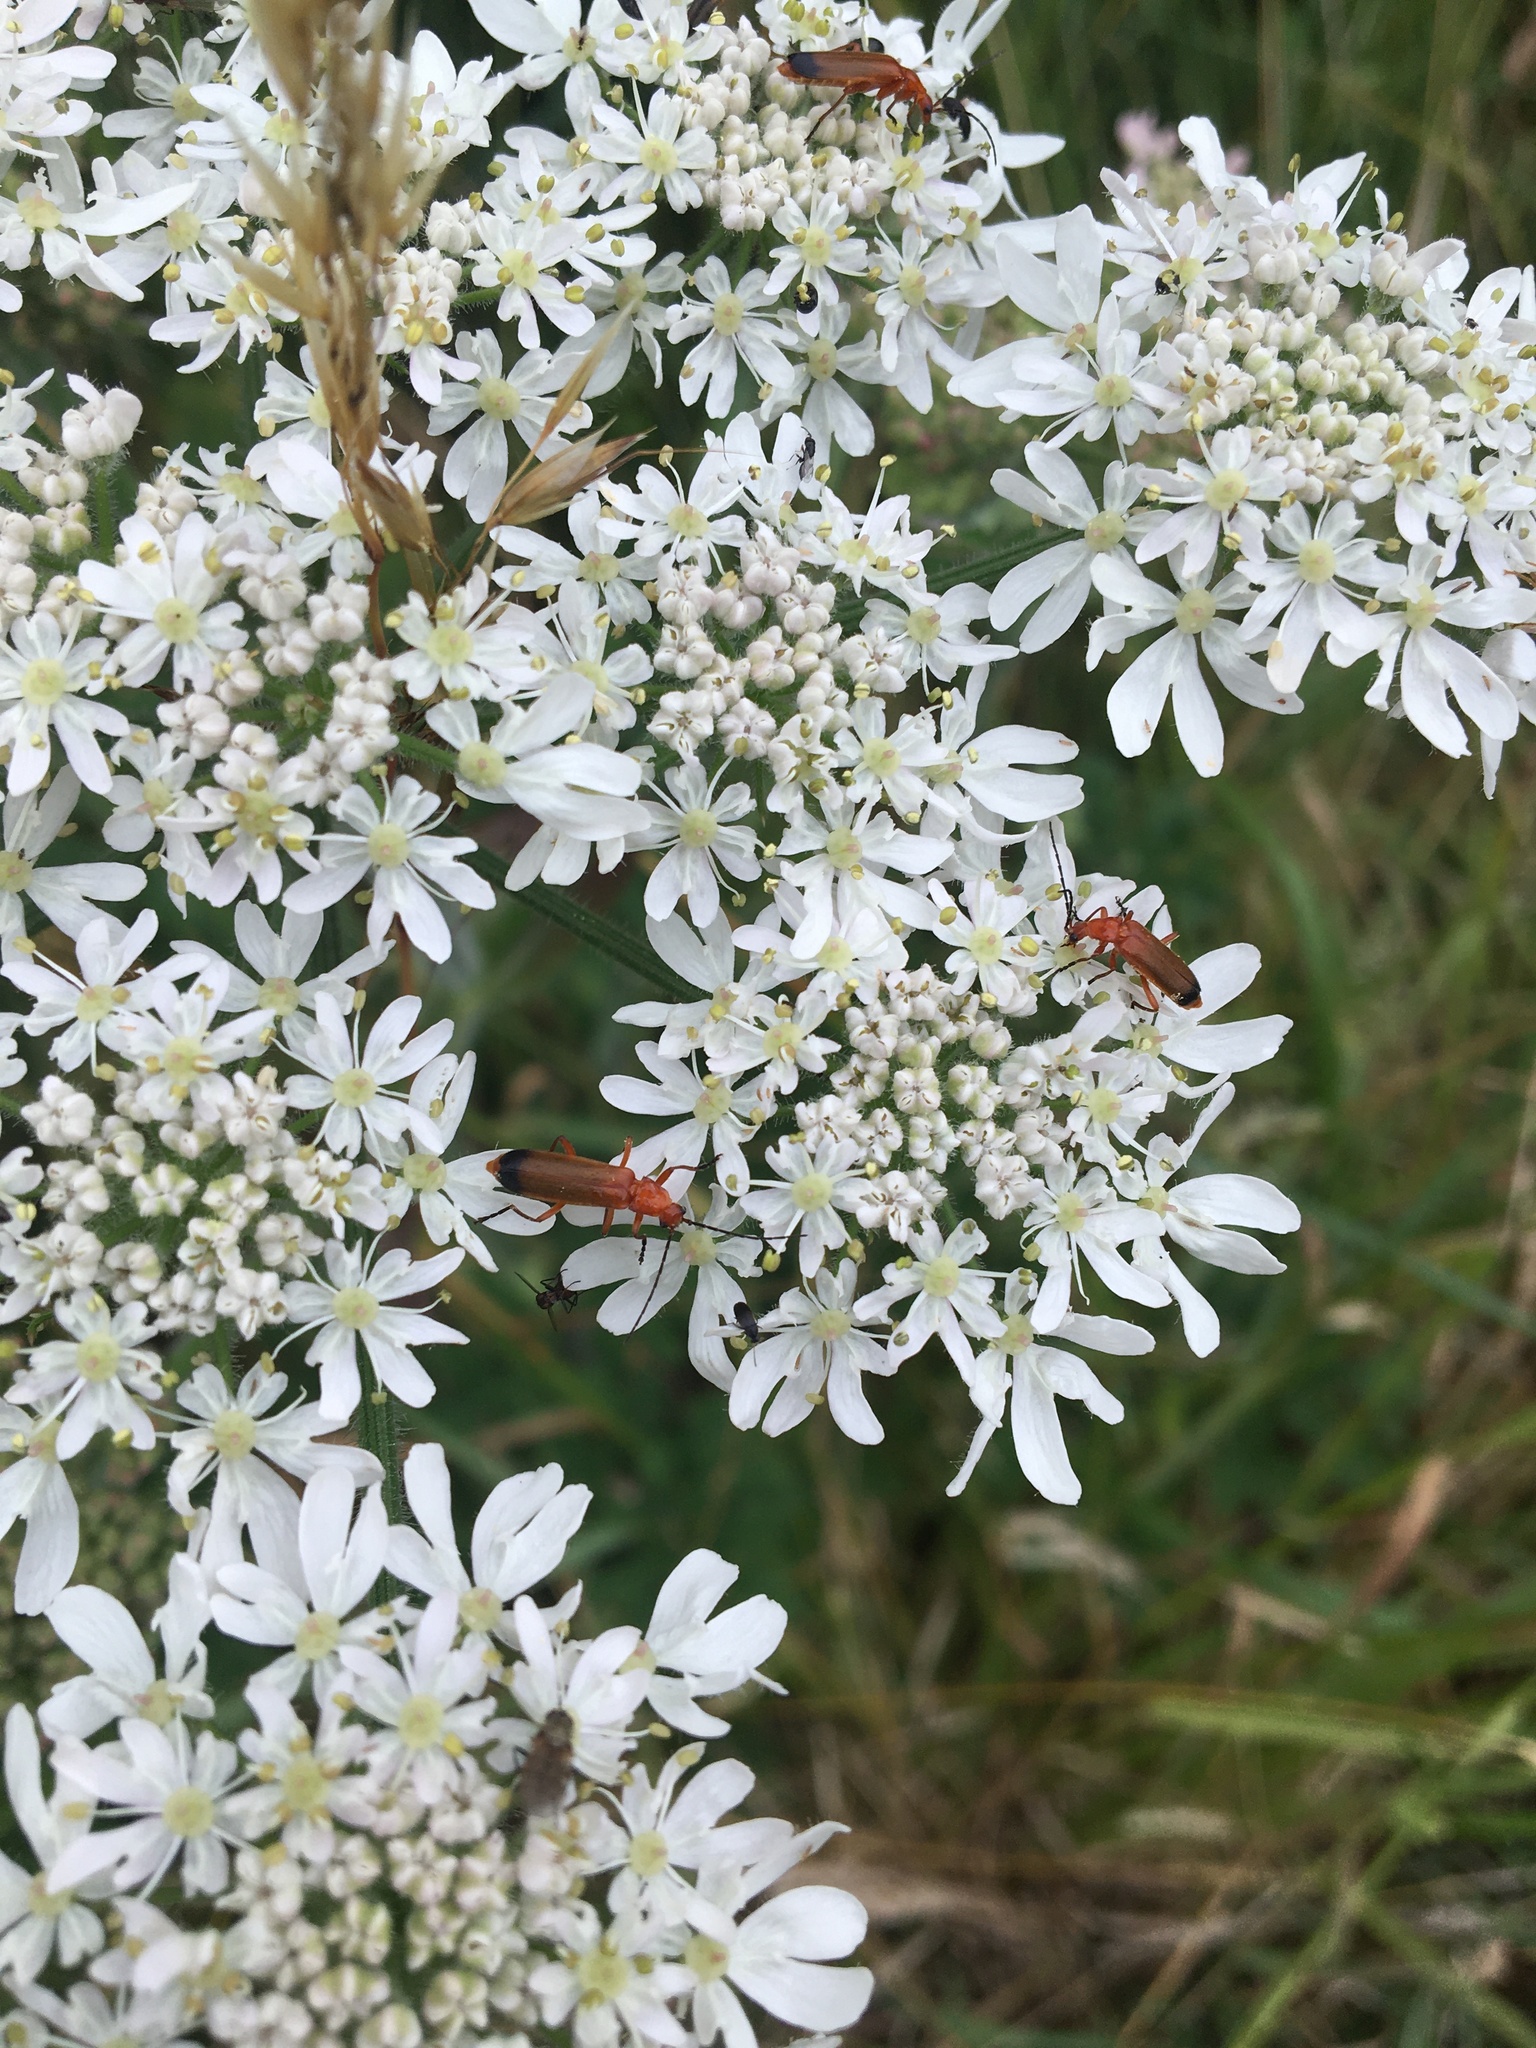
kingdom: Animalia
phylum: Arthropoda
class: Insecta
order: Coleoptera
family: Cantharidae
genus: Rhagonycha
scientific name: Rhagonycha fulva
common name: Common red soldier beetle
